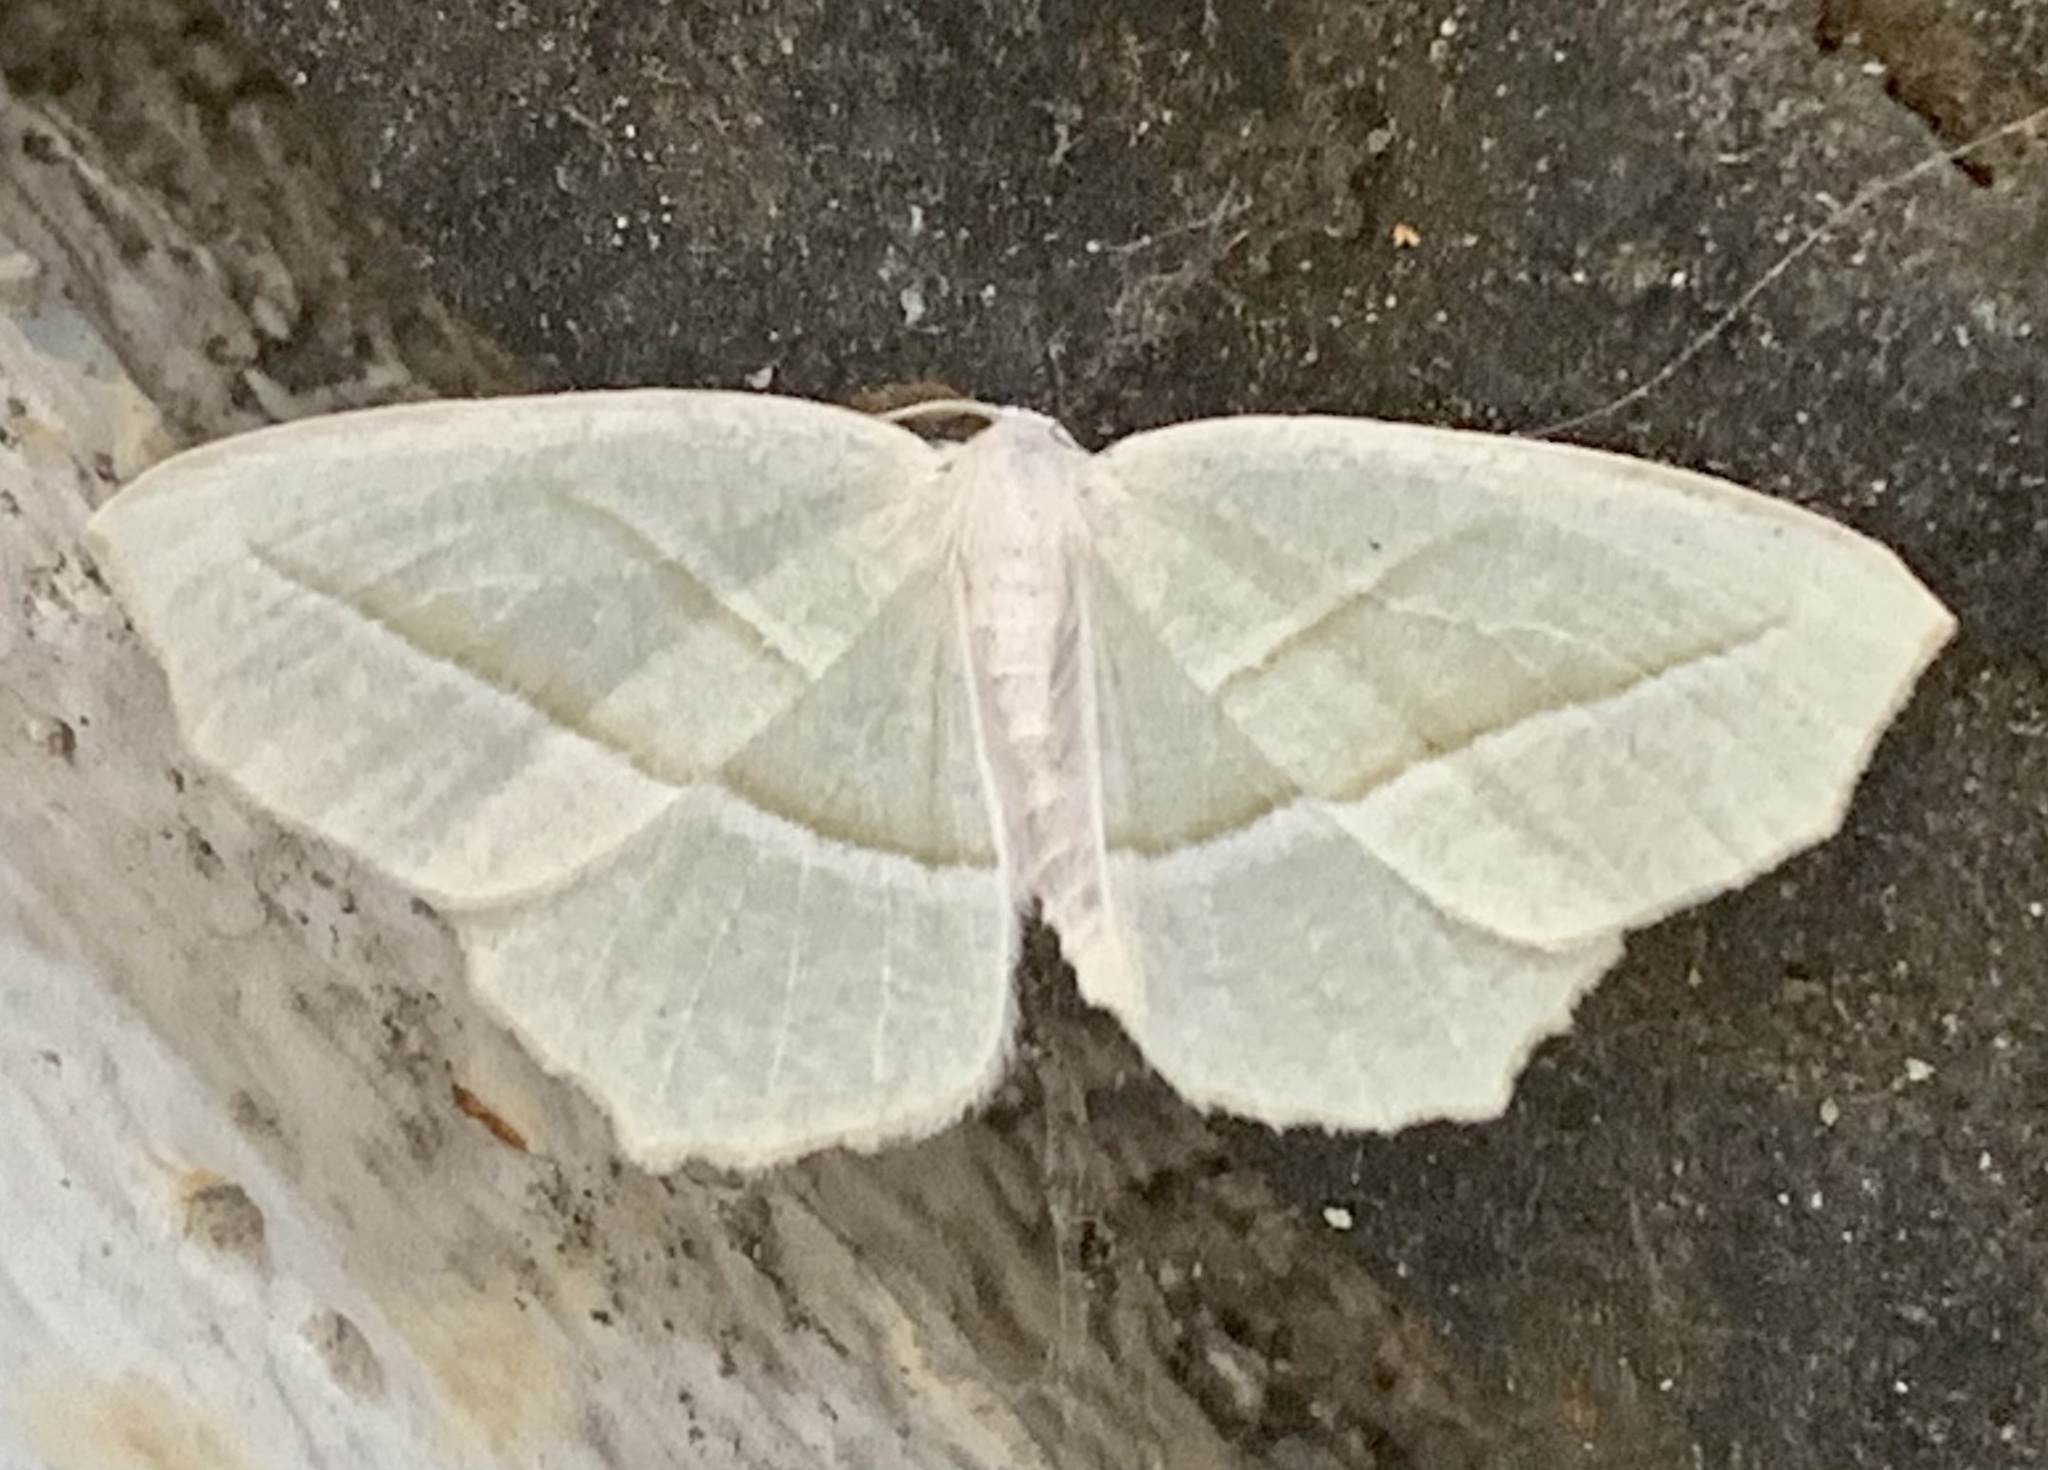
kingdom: Animalia
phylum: Arthropoda
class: Insecta
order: Lepidoptera
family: Geometridae
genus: Campaea
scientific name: Campaea perlata
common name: Fringed looper
